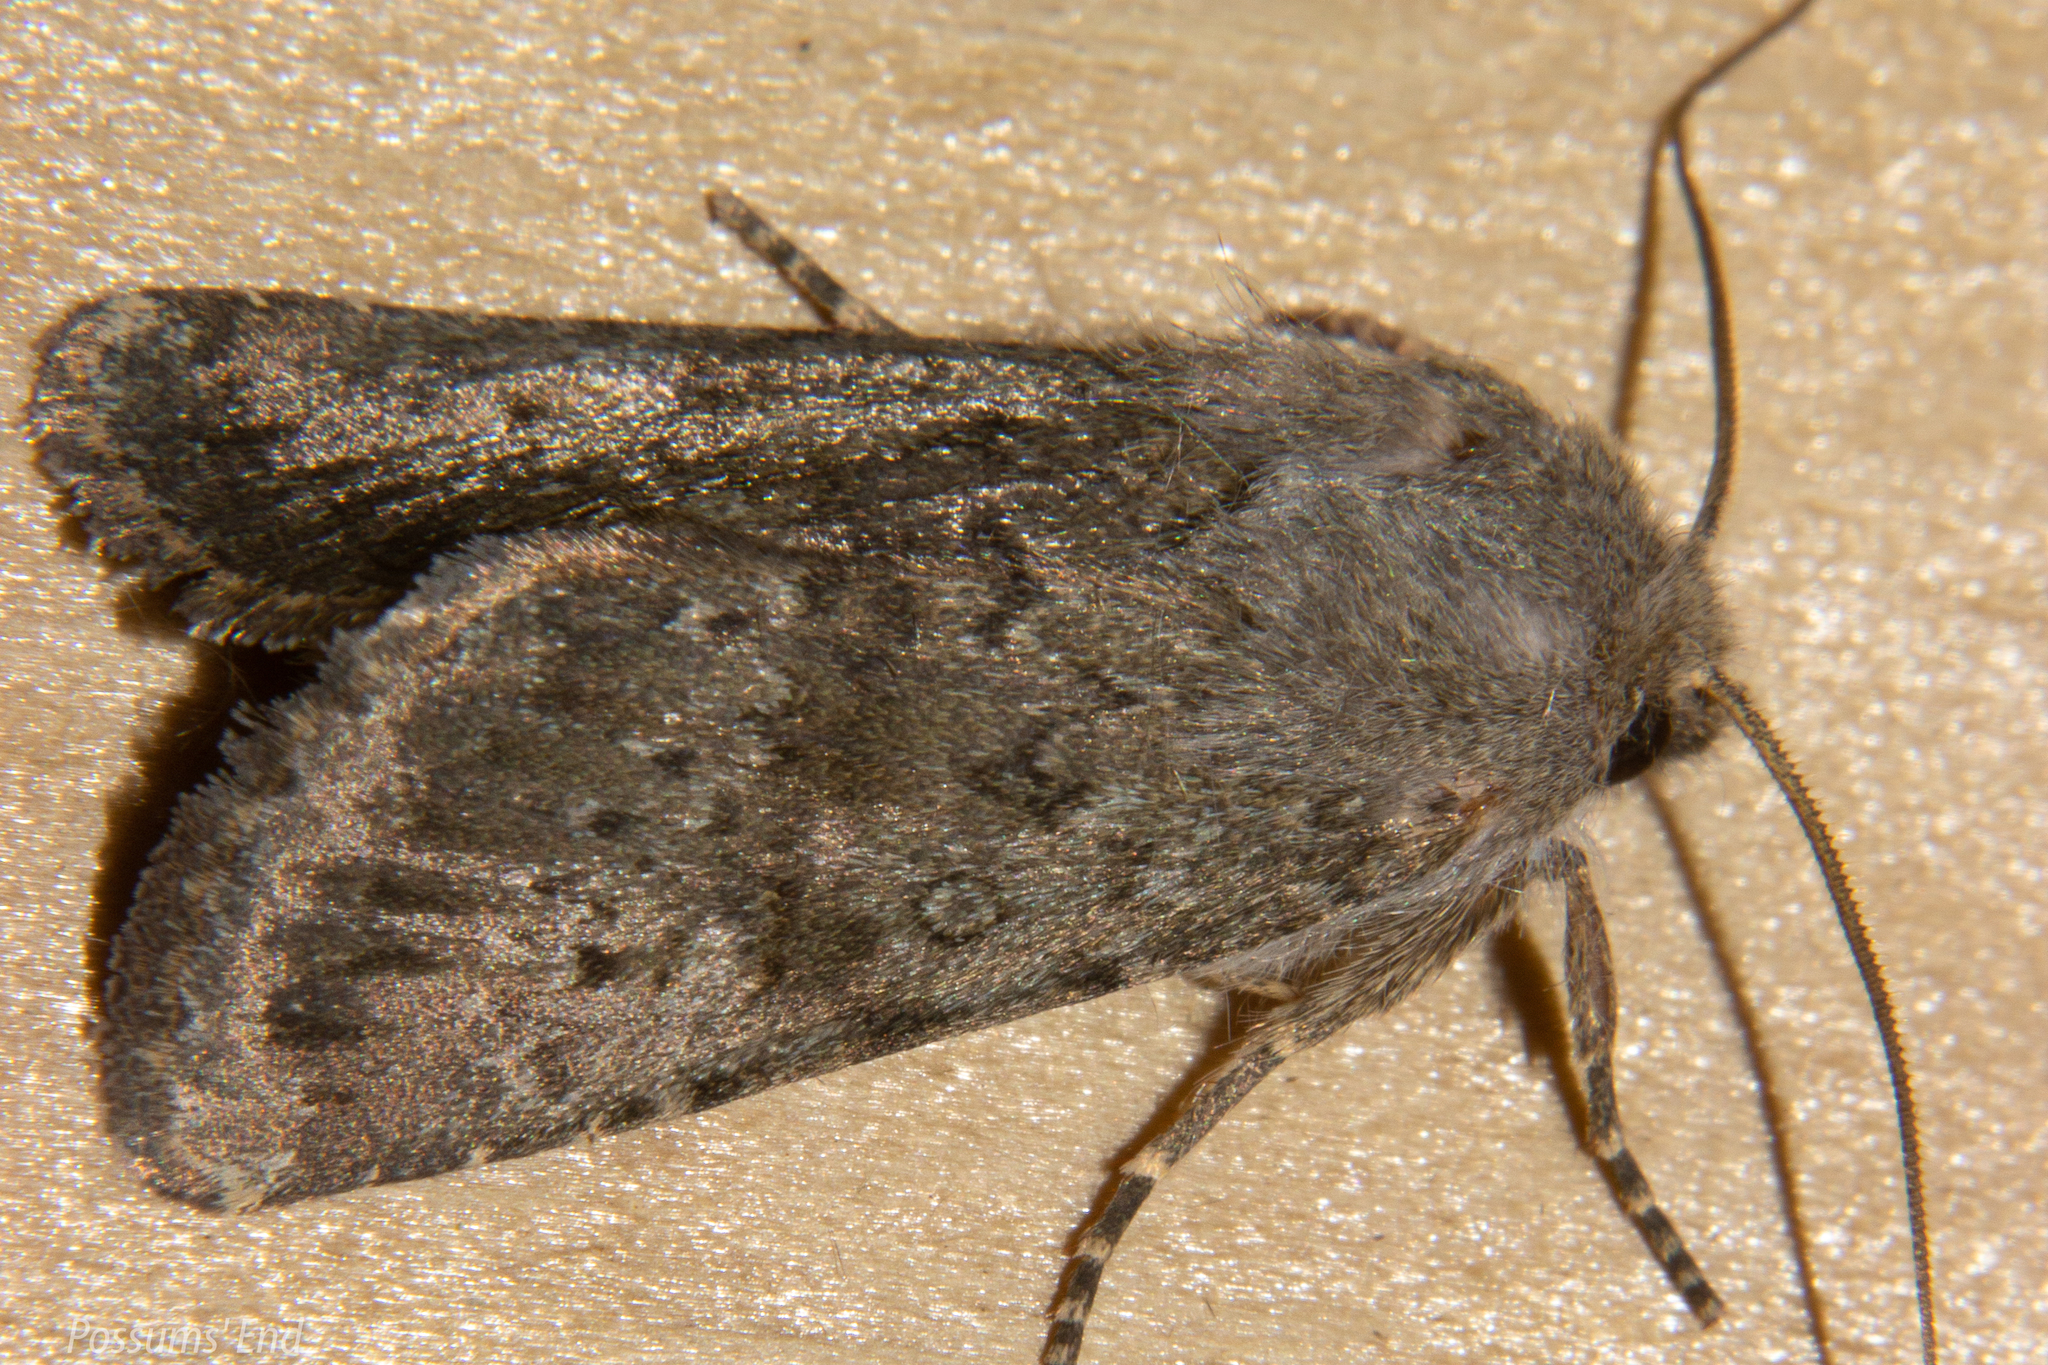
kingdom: Animalia
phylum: Arthropoda
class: Insecta
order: Lepidoptera
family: Noctuidae
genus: Ichneutica
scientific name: Ichneutica moderata
